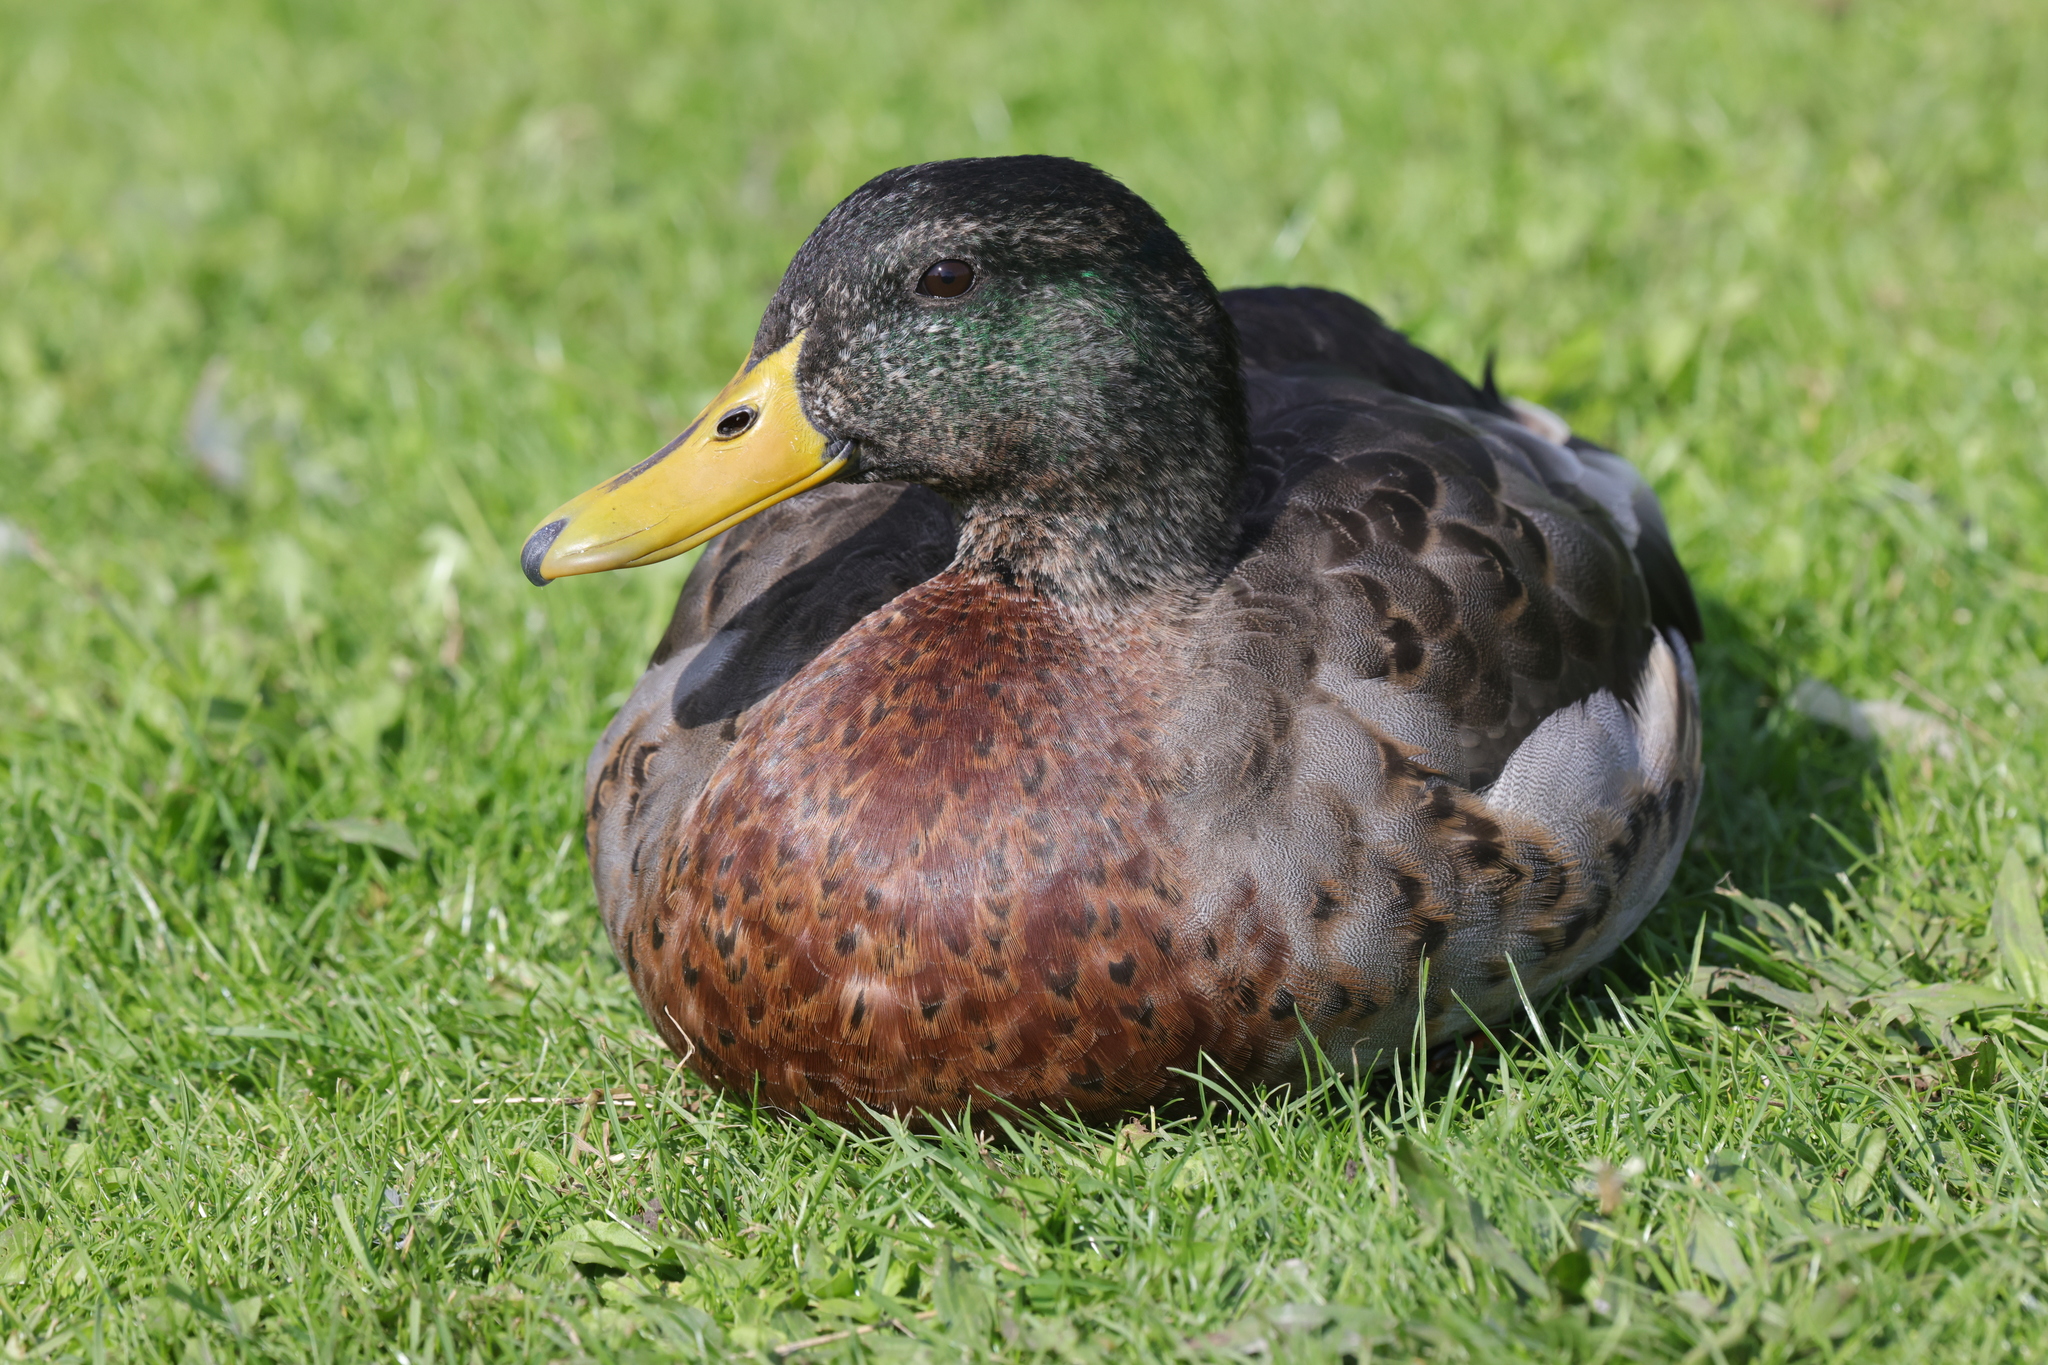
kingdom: Animalia
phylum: Chordata
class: Aves
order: Anseriformes
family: Anatidae
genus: Anas
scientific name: Anas platyrhynchos
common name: Mallard
